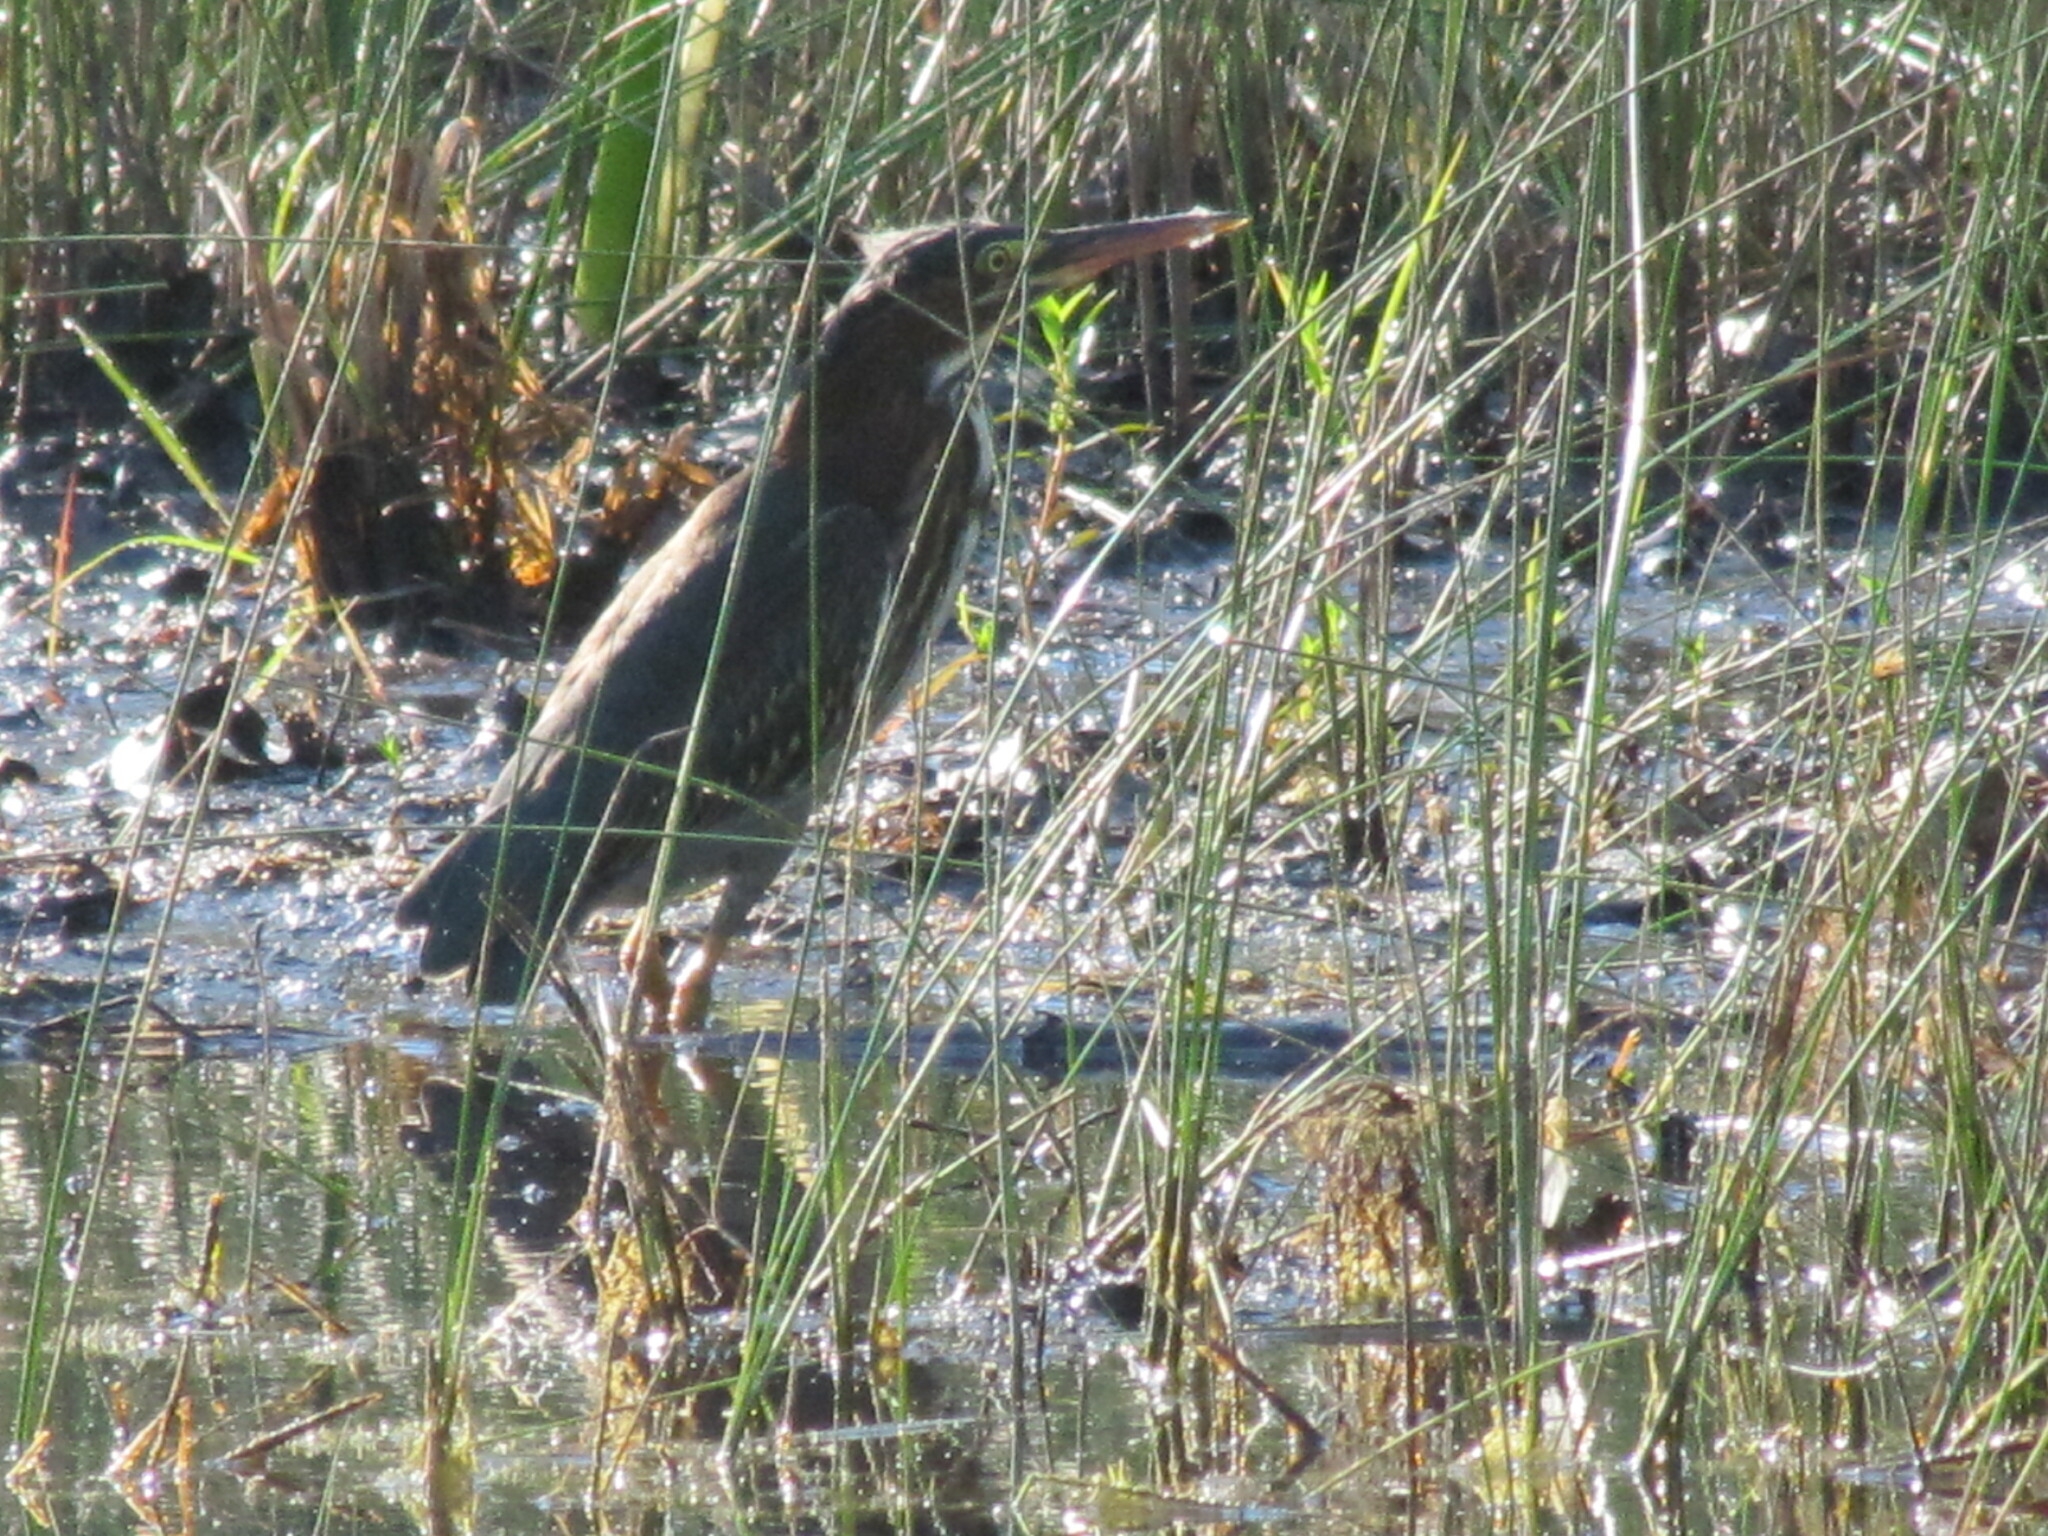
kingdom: Animalia
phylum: Chordata
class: Aves
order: Pelecaniformes
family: Ardeidae
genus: Butorides
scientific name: Butorides virescens
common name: Green heron
